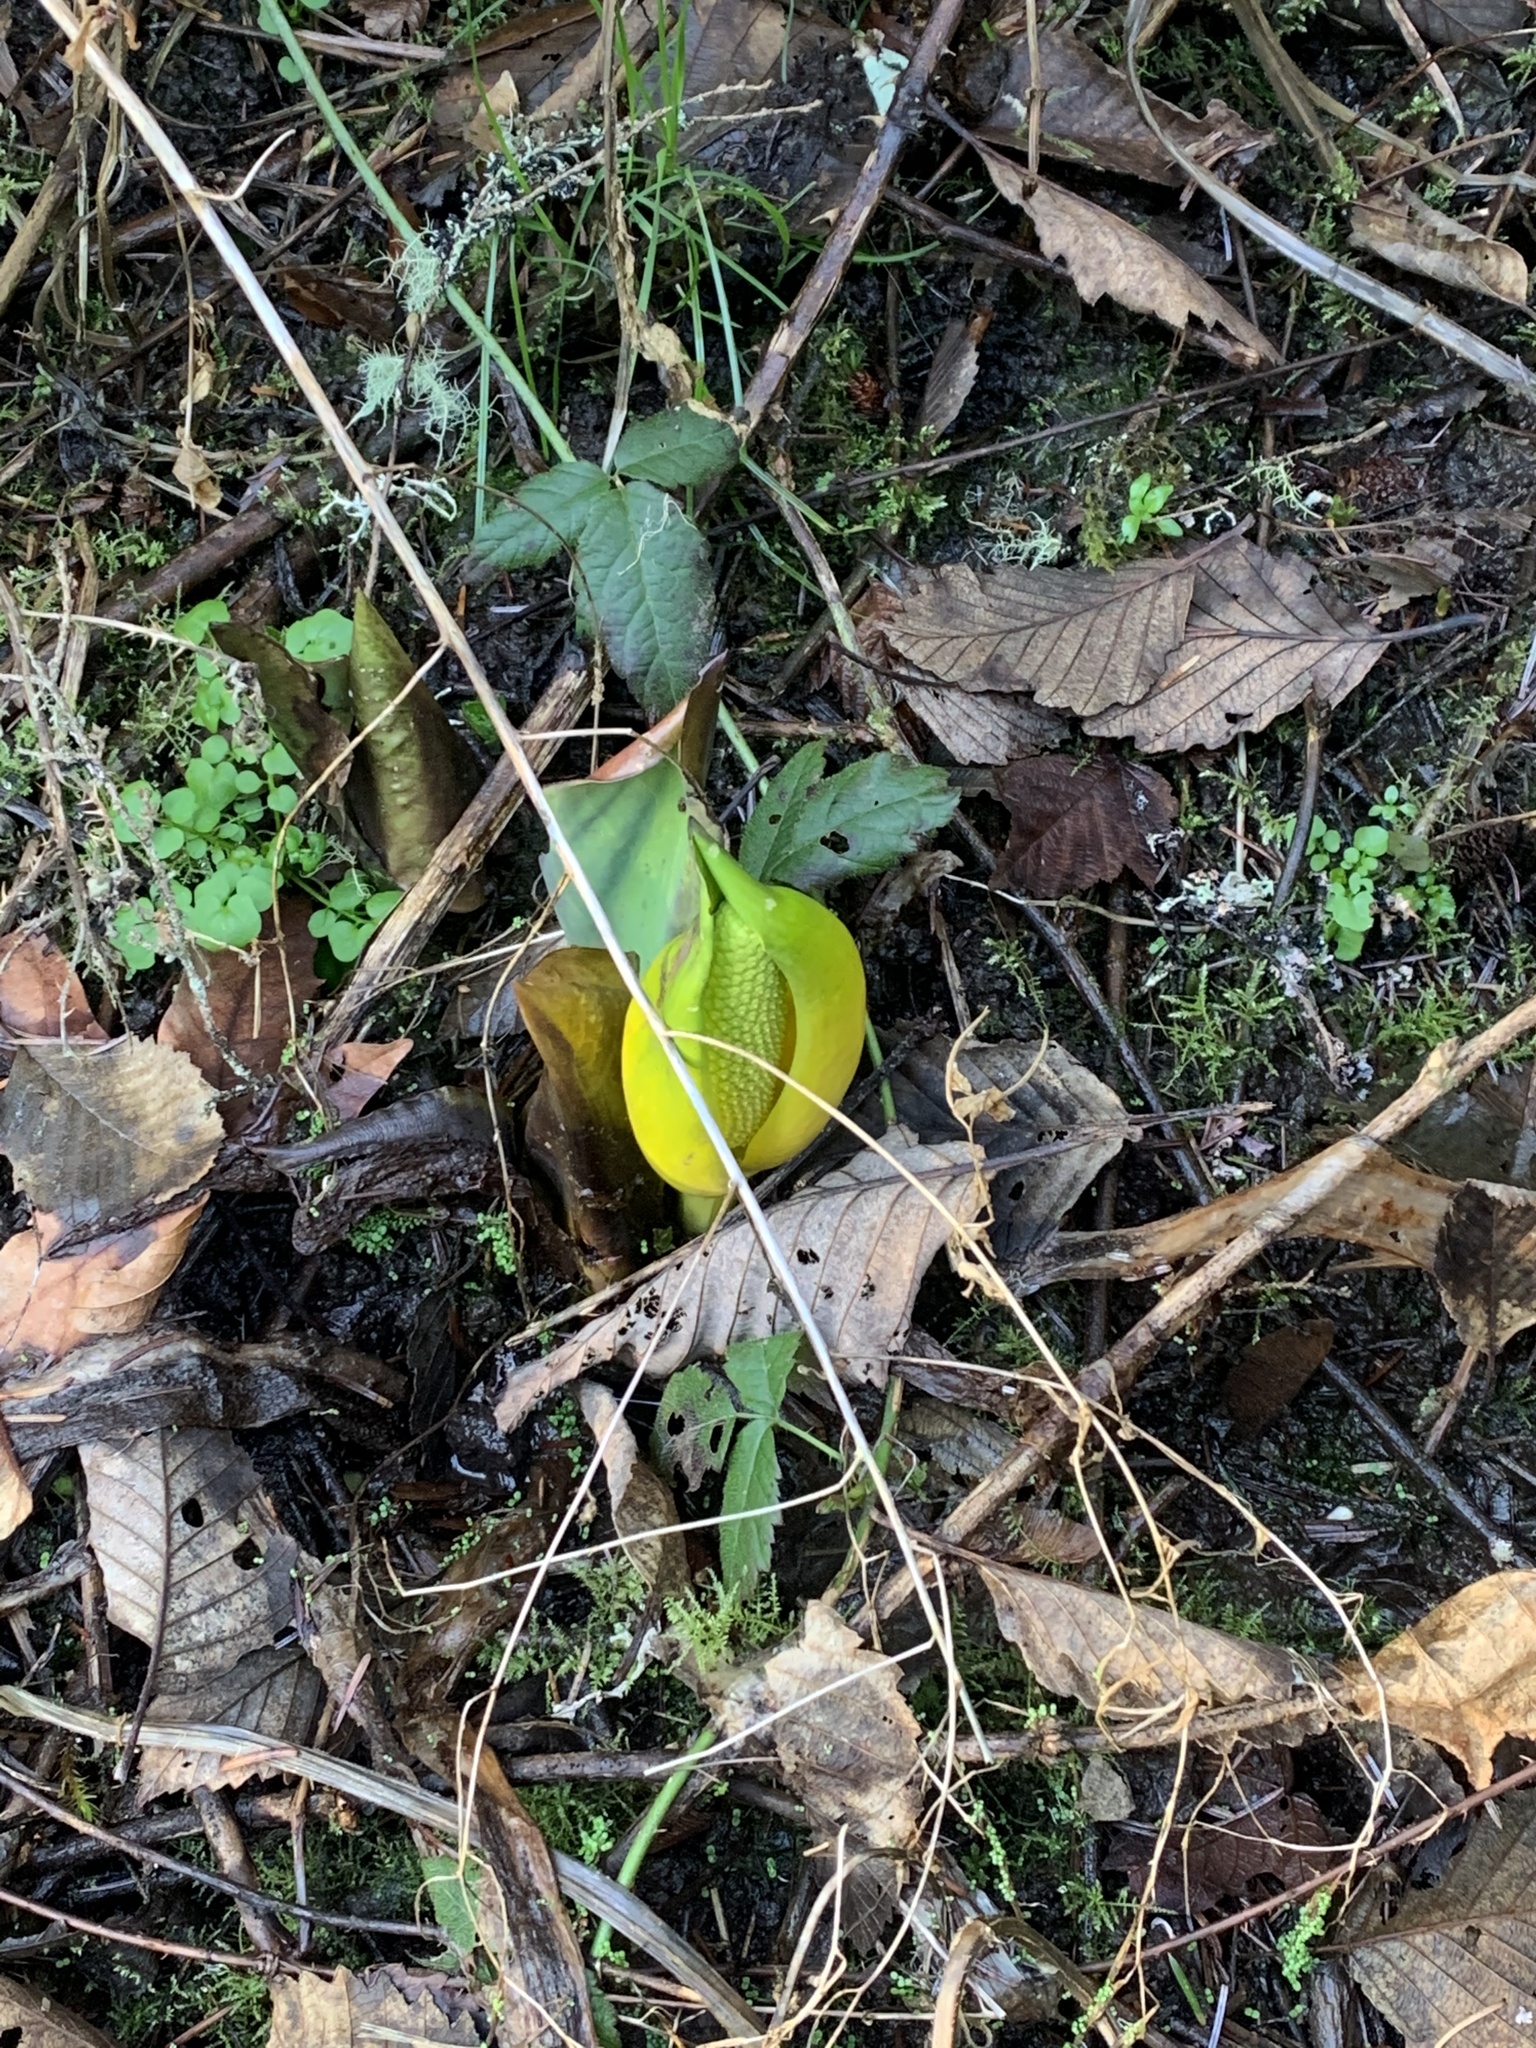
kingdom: Plantae
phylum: Tracheophyta
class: Liliopsida
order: Alismatales
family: Araceae
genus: Lysichiton
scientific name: Lysichiton americanus
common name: American skunk cabbage
